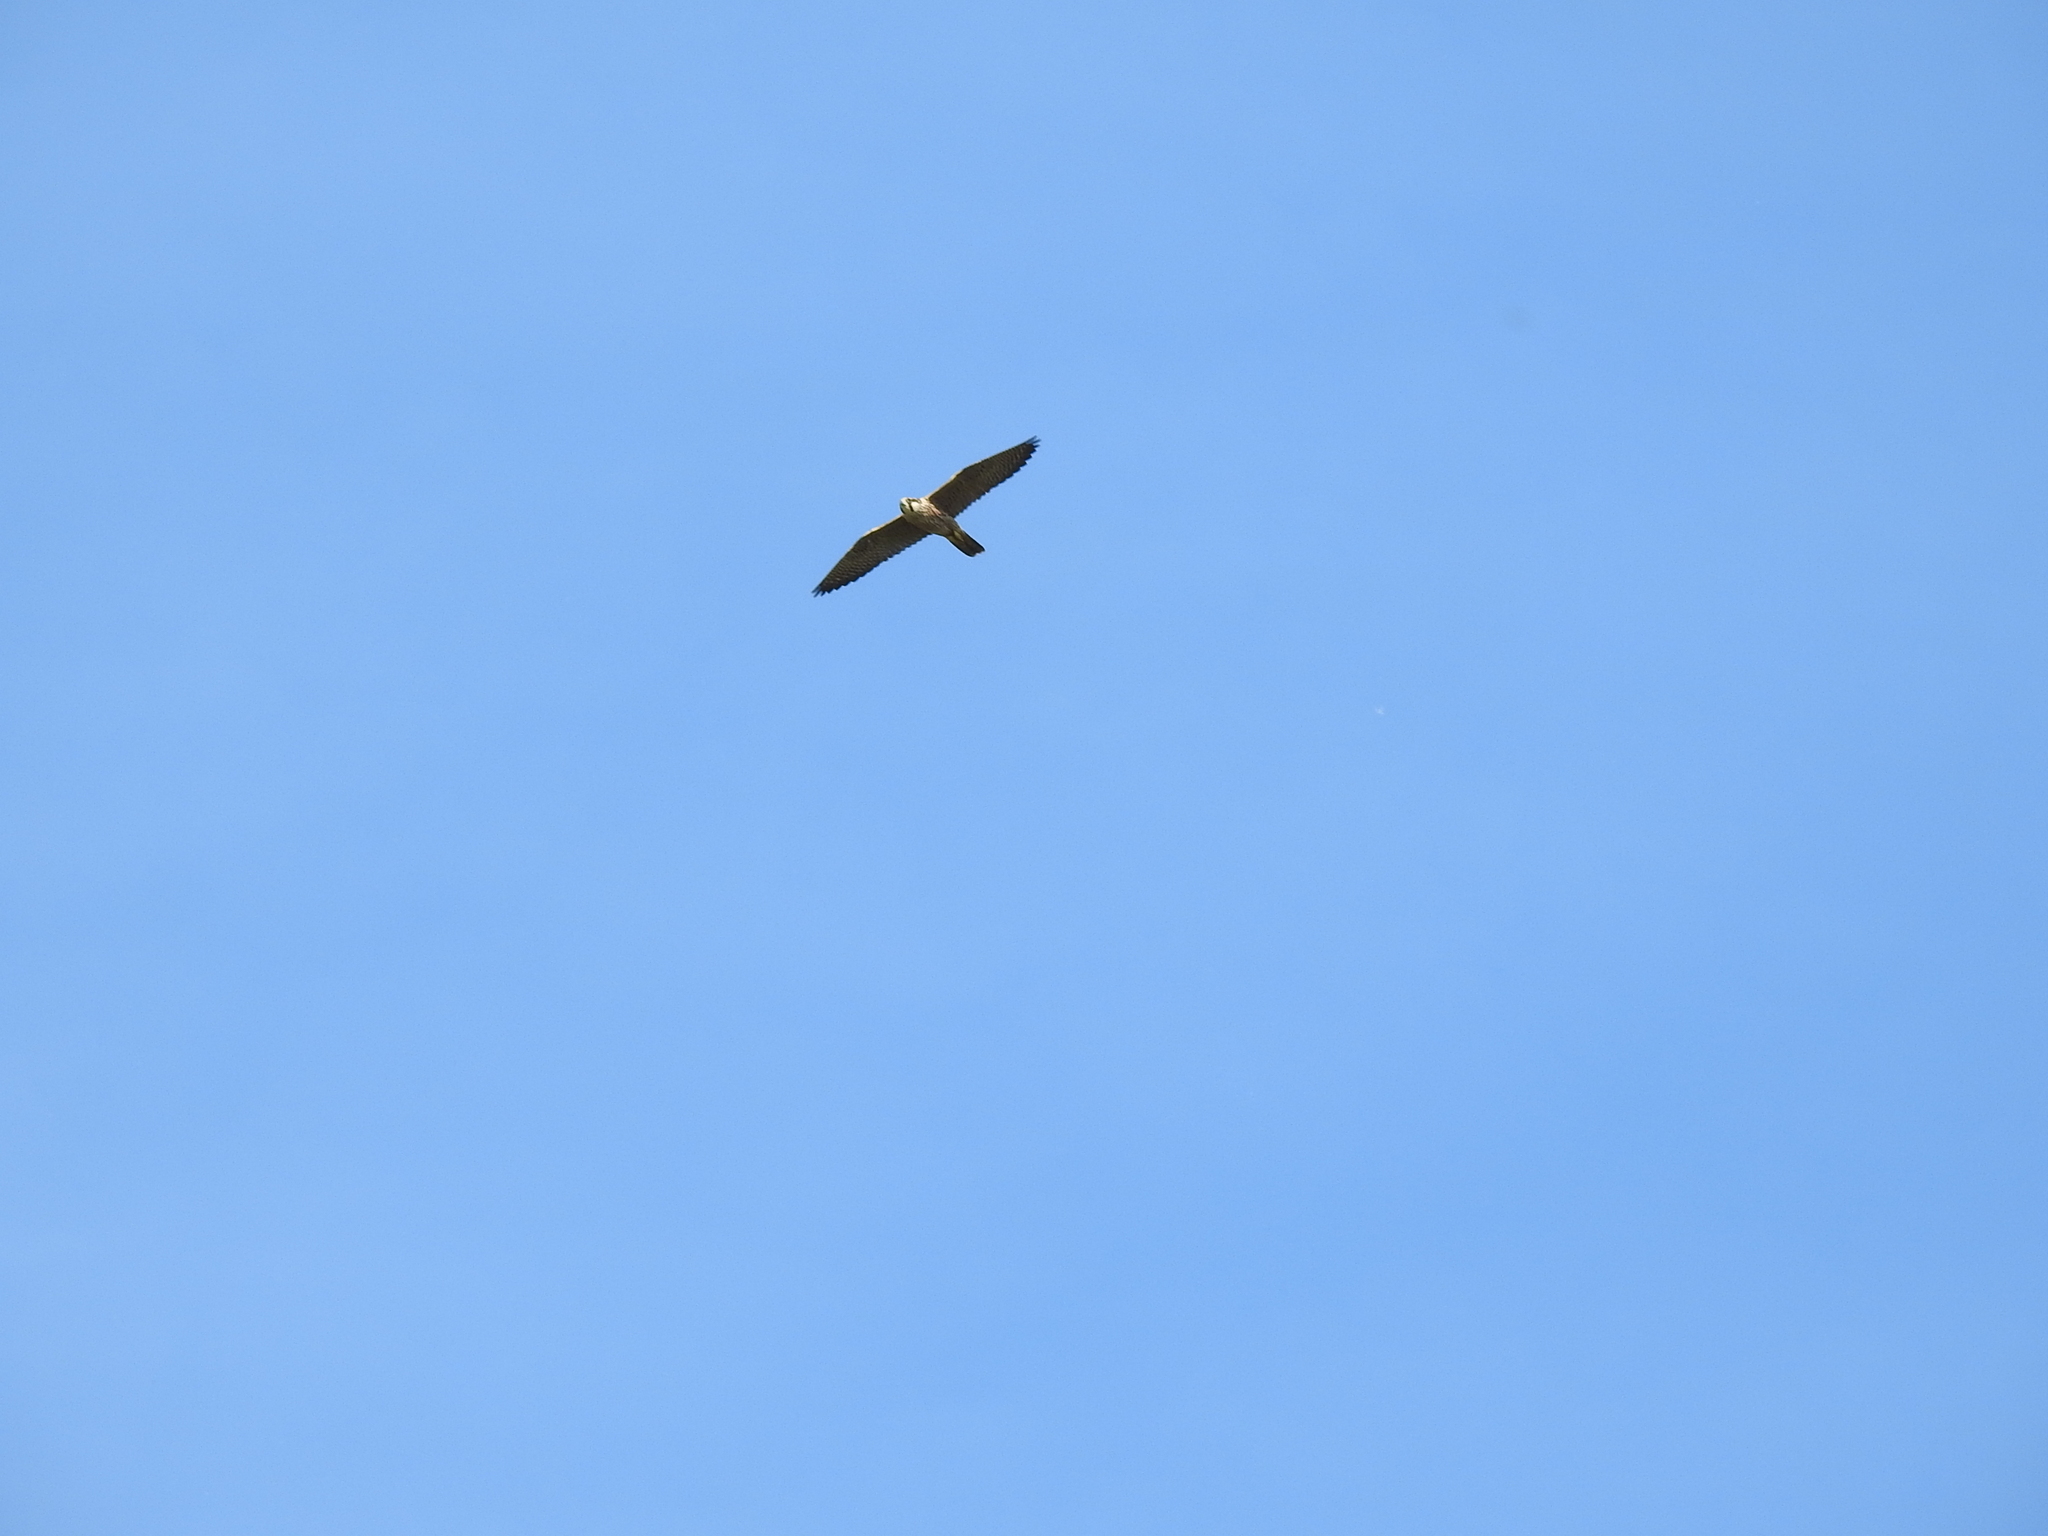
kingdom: Animalia
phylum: Chordata
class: Aves
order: Falconiformes
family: Falconidae
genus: Falco
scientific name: Falco peregrinus
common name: Peregrine falcon
